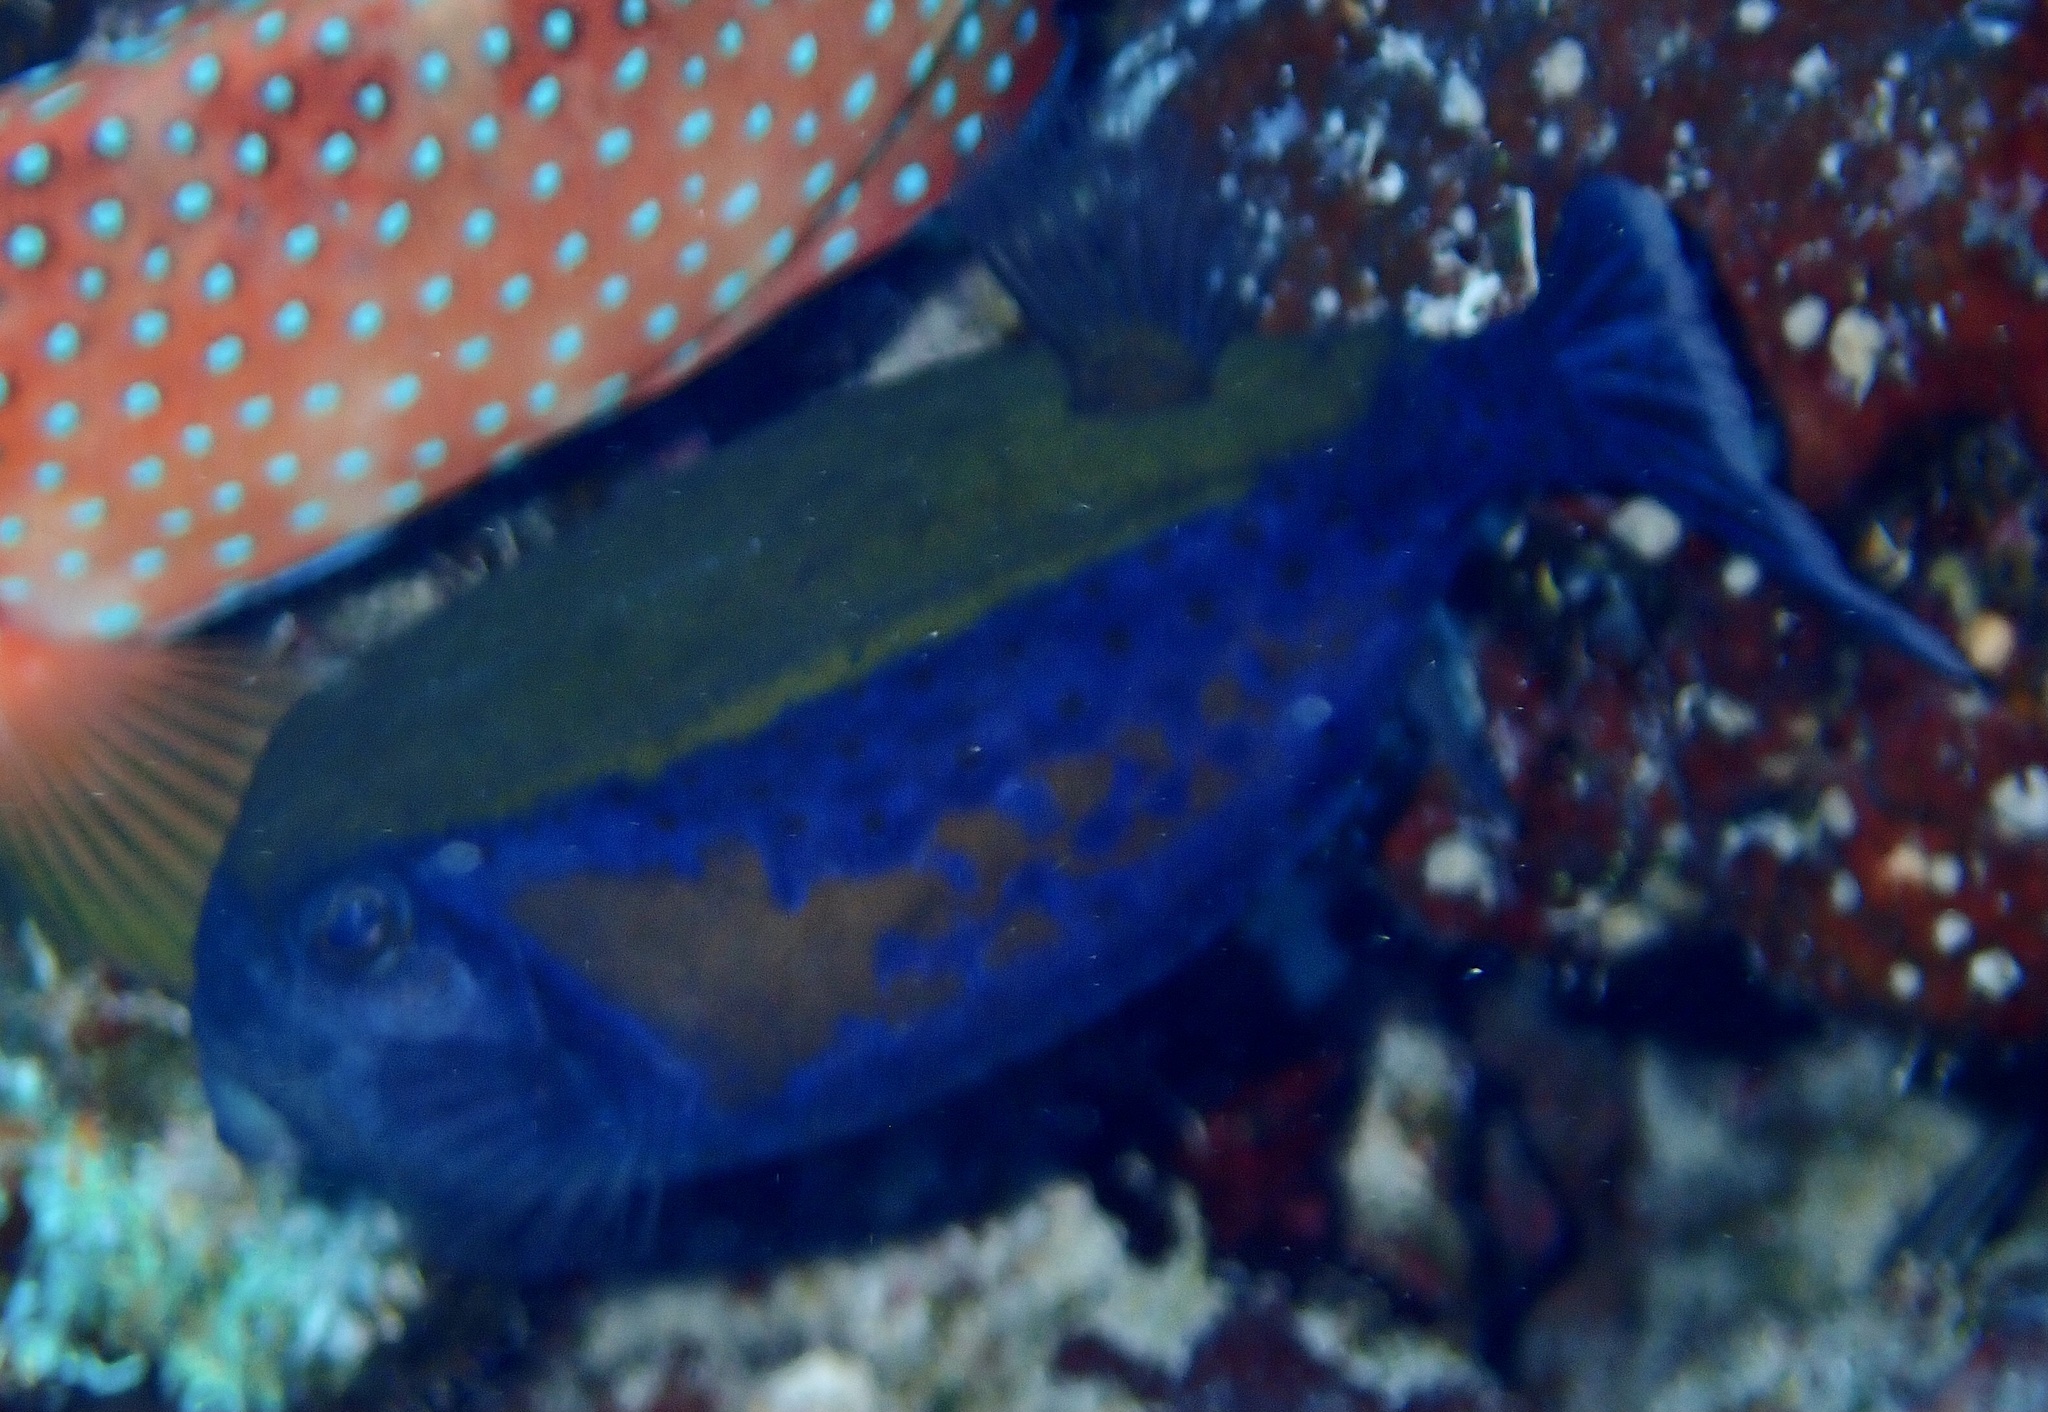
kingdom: Animalia
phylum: Chordata
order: Tetraodontiformes
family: Ostraciidae
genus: Ostracion
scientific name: Ostracion cyanurus
